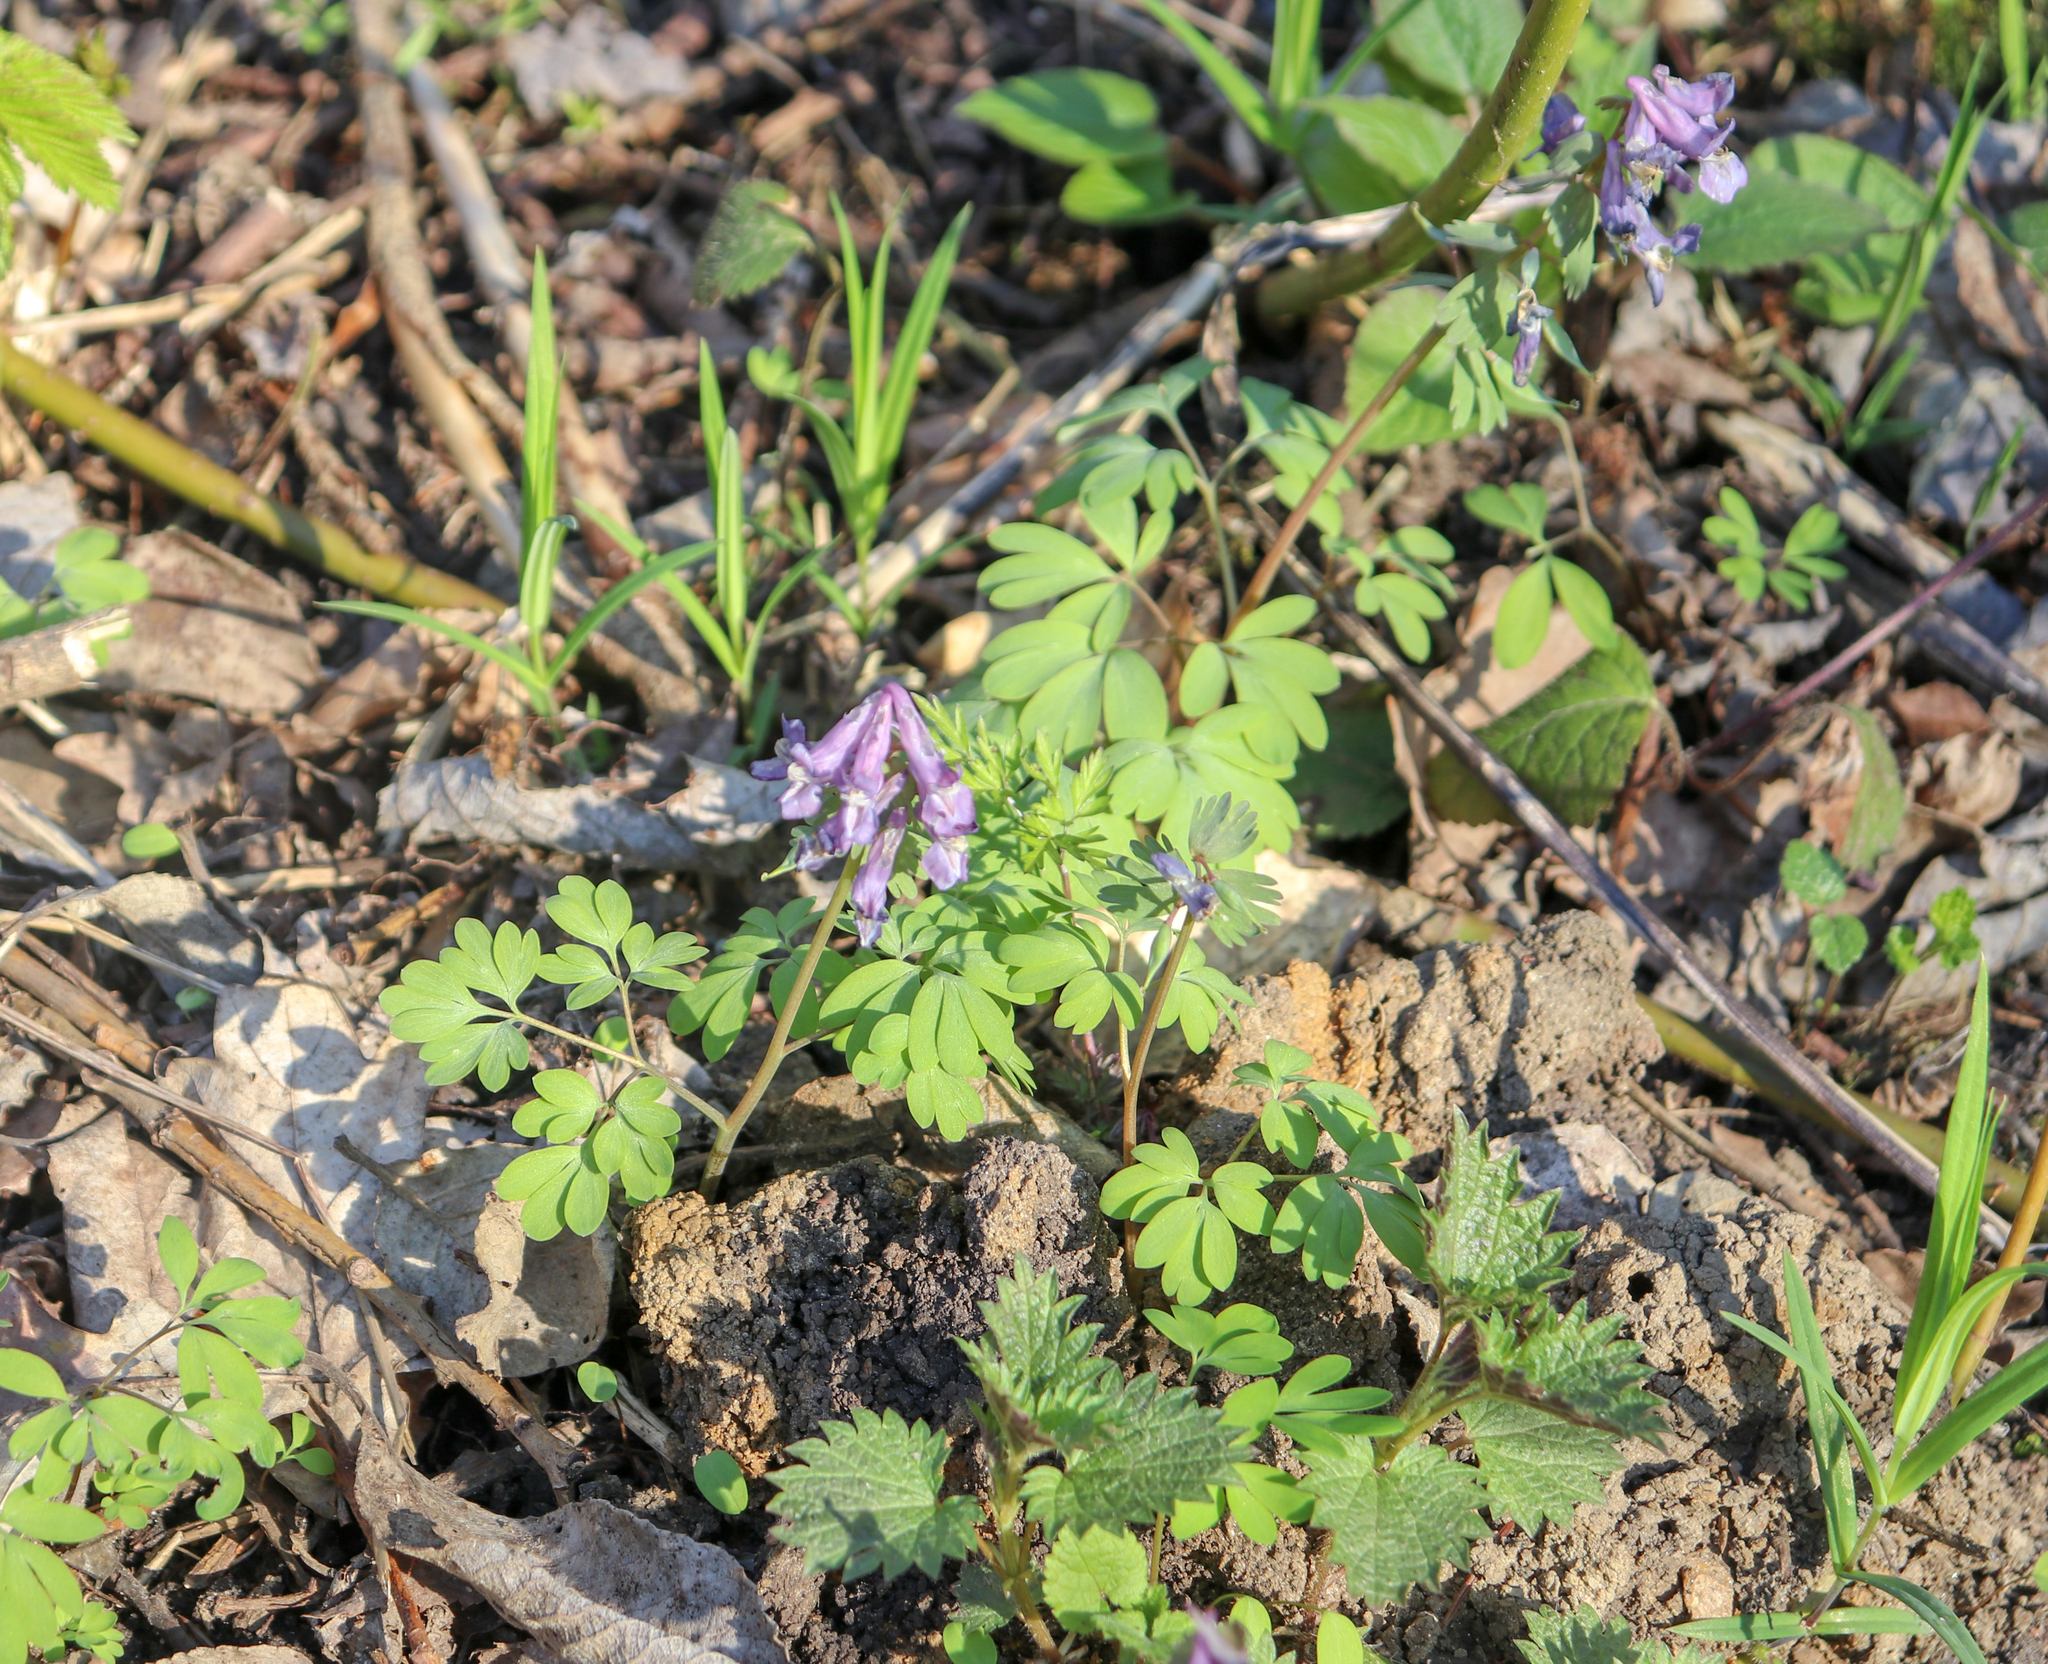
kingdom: Plantae
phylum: Tracheophyta
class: Magnoliopsida
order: Ranunculales
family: Papaveraceae
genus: Corydalis
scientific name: Corydalis solida
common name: Bird-in-a-bush
